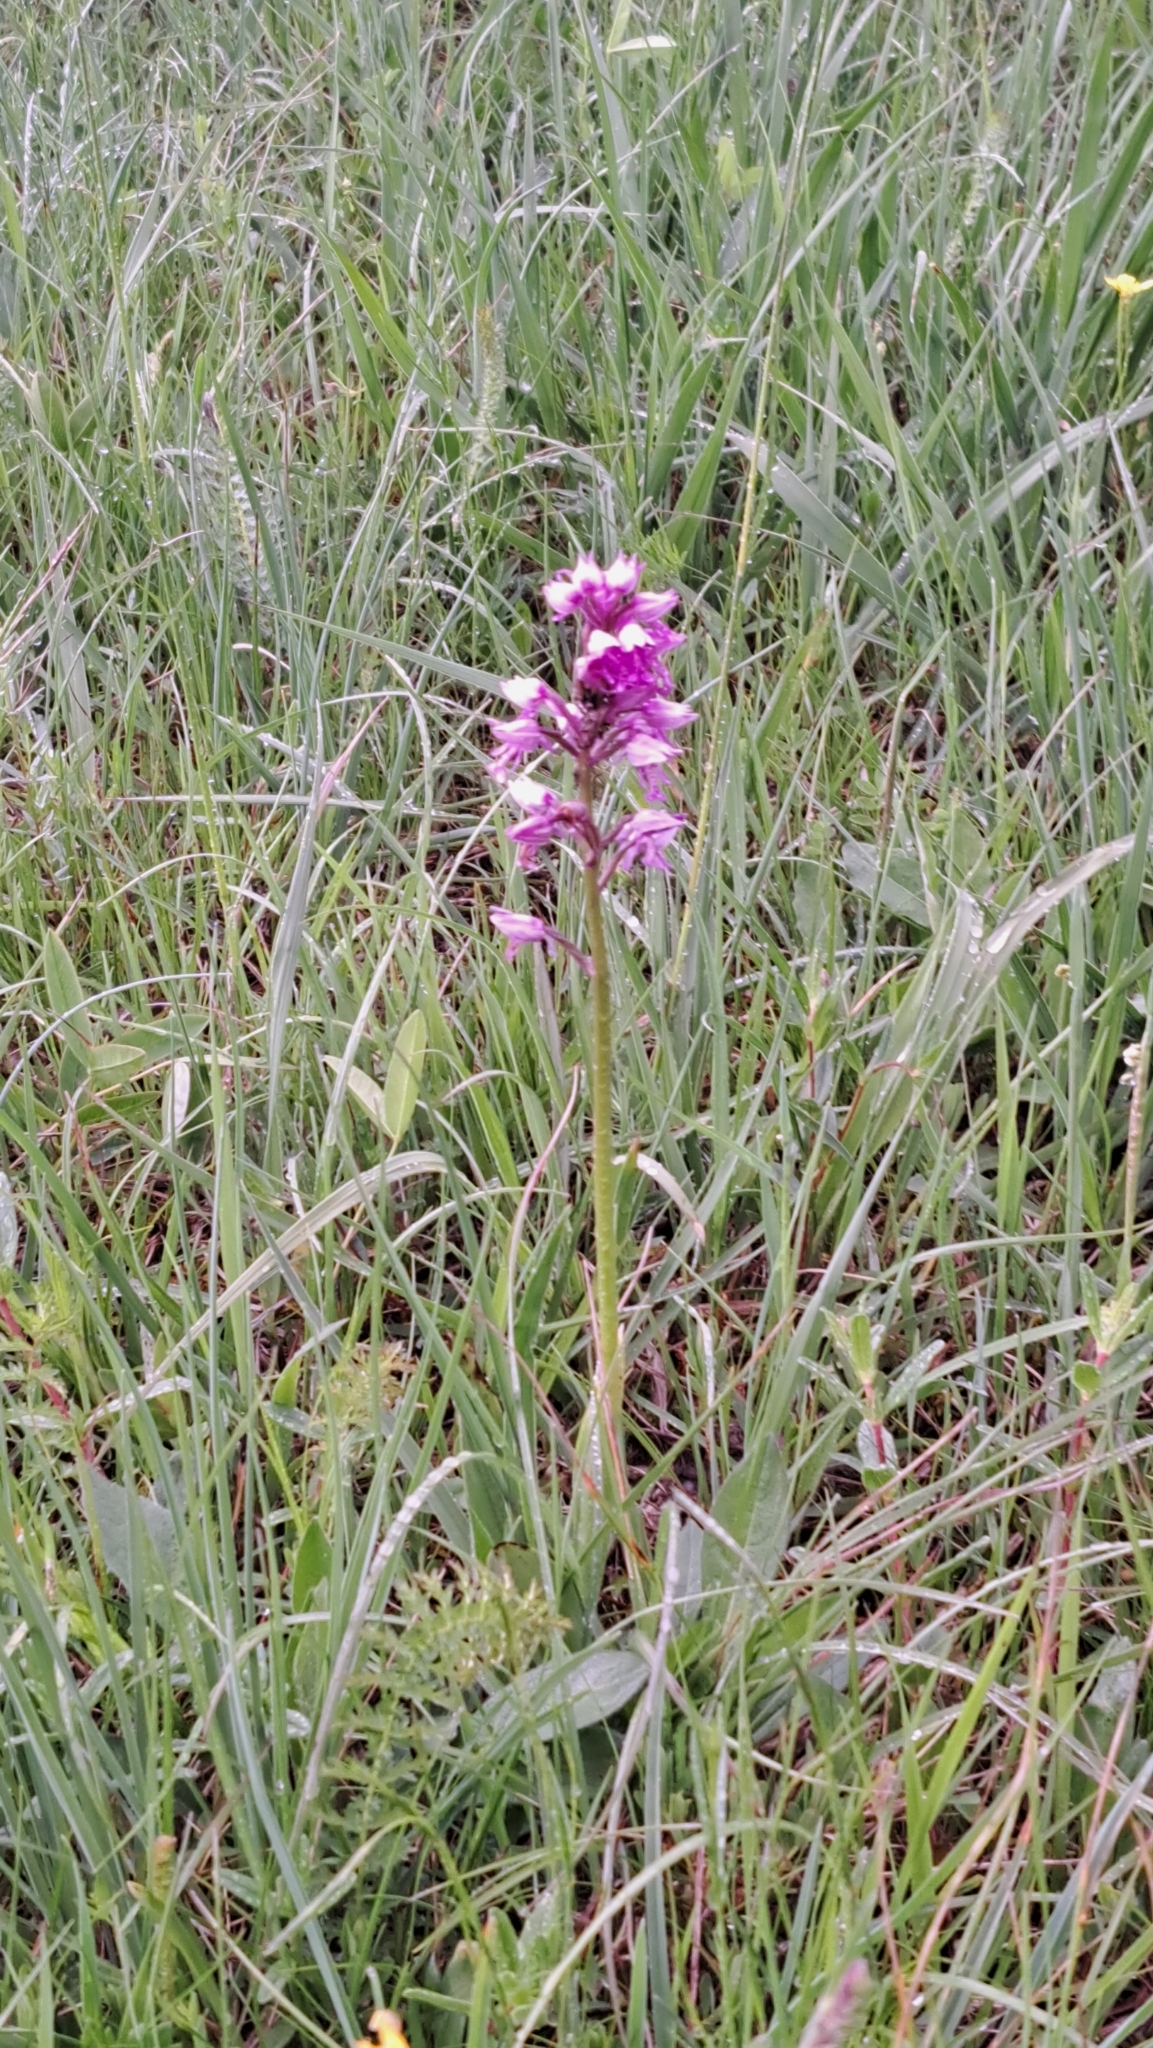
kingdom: Plantae
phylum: Tracheophyta
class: Liliopsida
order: Asparagales
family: Orchidaceae
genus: Orchis
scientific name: Orchis militaris
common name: Military orchid
